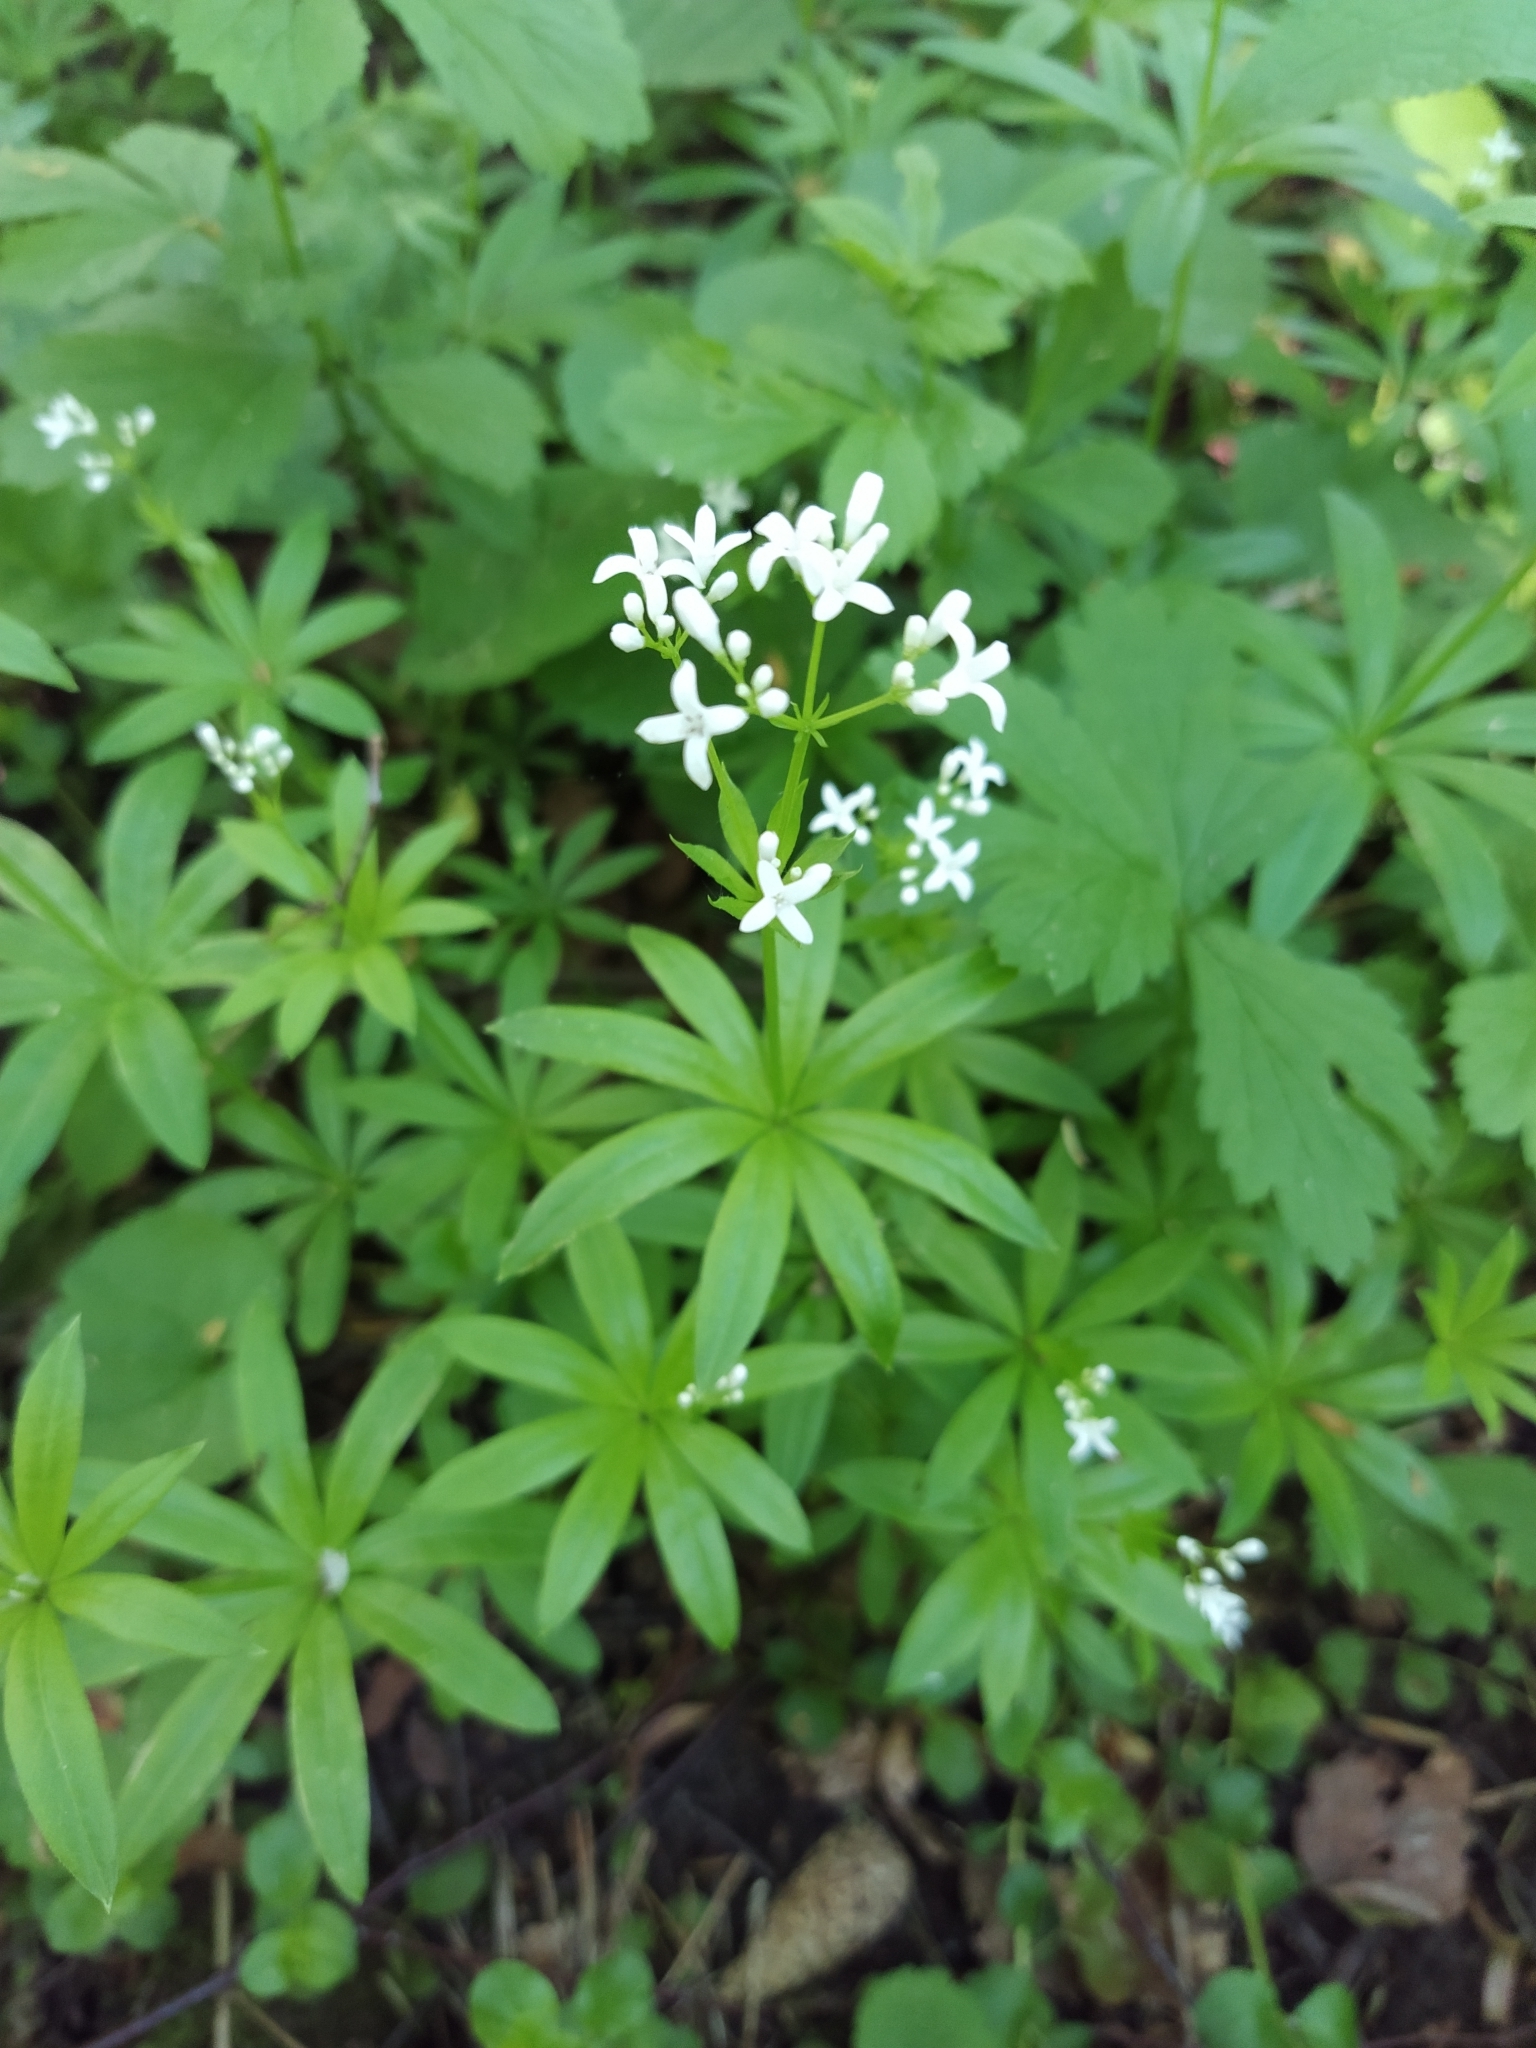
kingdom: Plantae
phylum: Tracheophyta
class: Magnoliopsida
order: Gentianales
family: Rubiaceae
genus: Galium
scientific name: Galium odoratum
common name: Sweet woodruff
